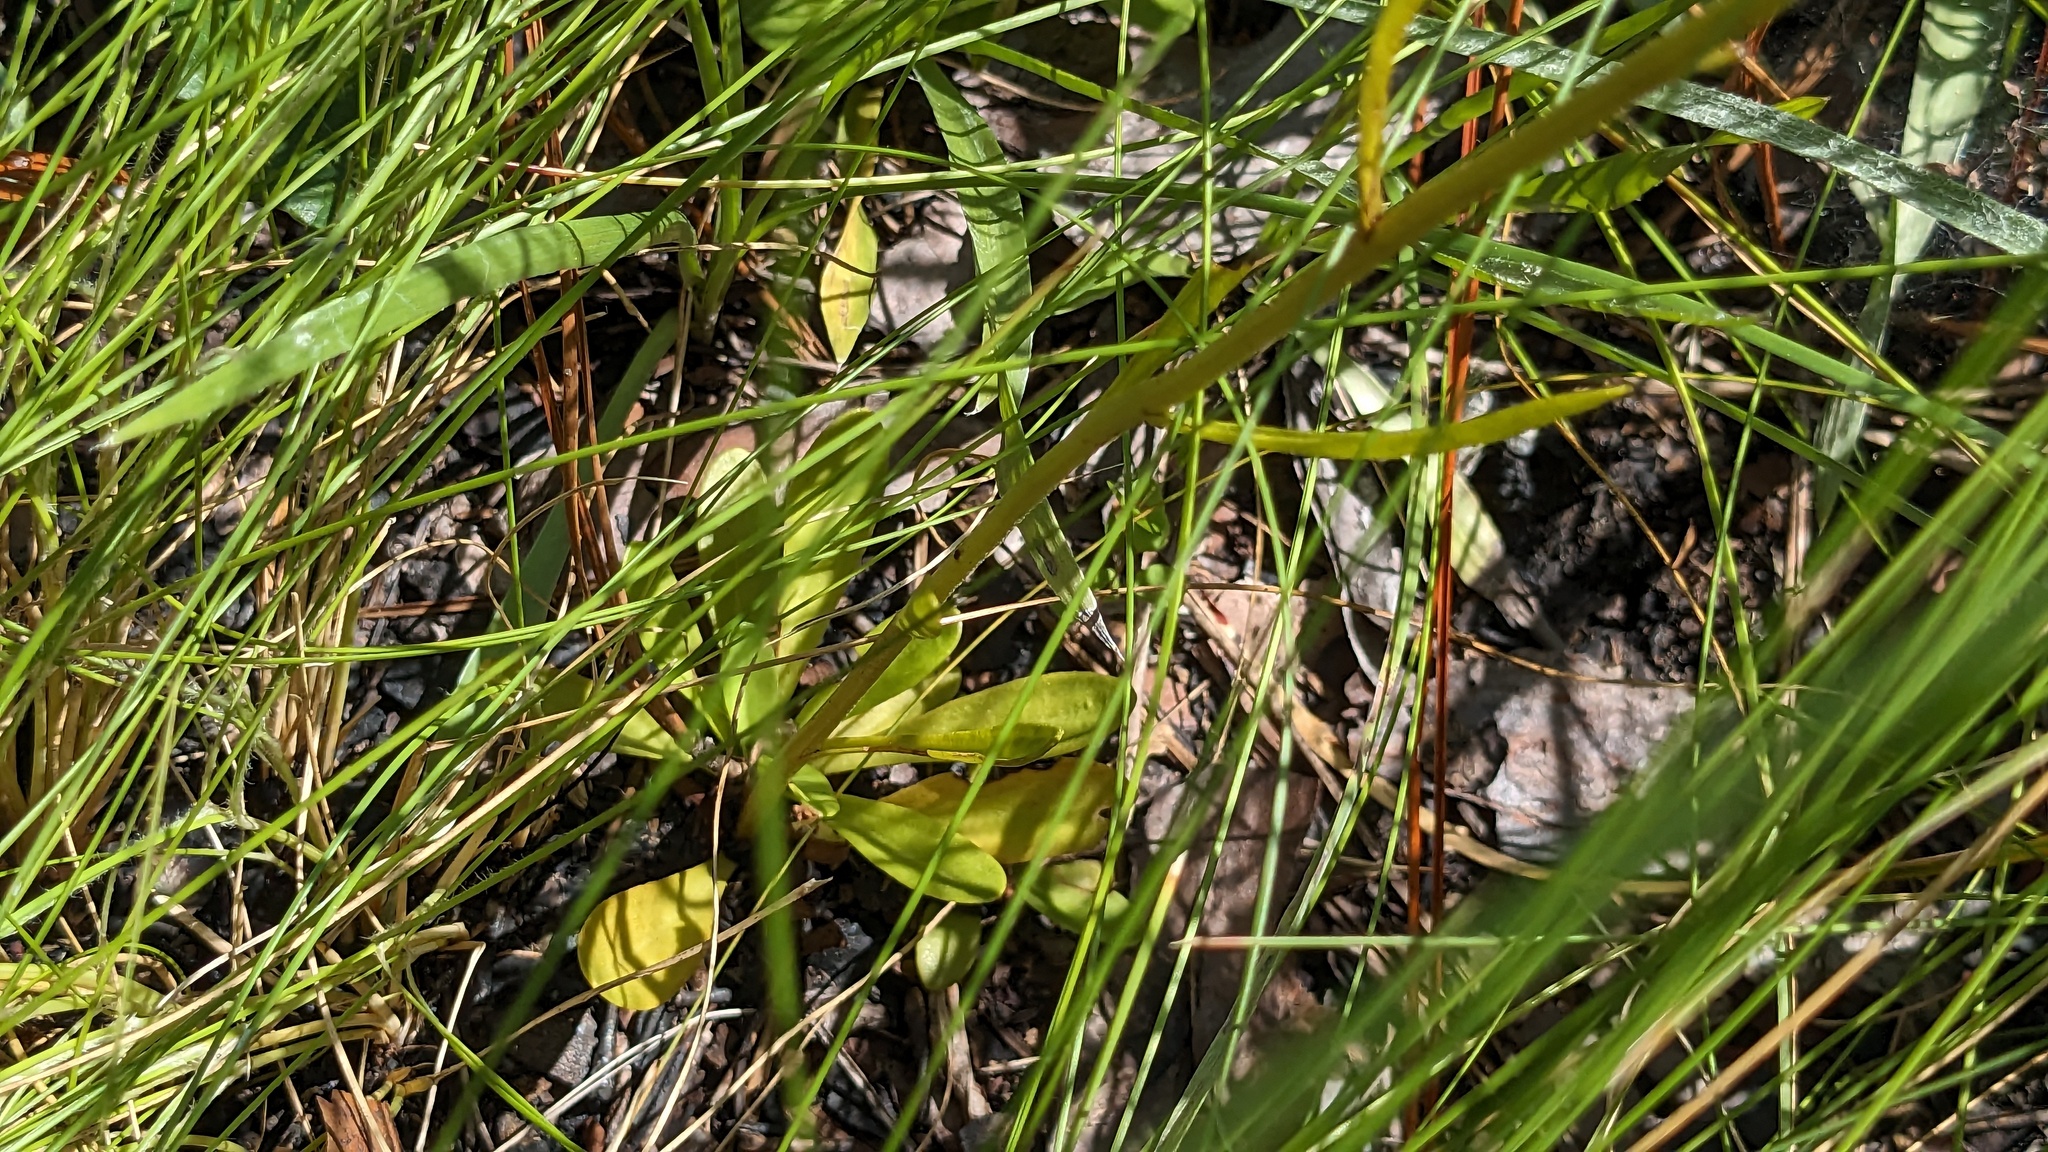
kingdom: Plantae
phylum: Tracheophyta
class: Magnoliopsida
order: Asterales
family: Asteraceae
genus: Balduina
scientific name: Balduina uniflora
